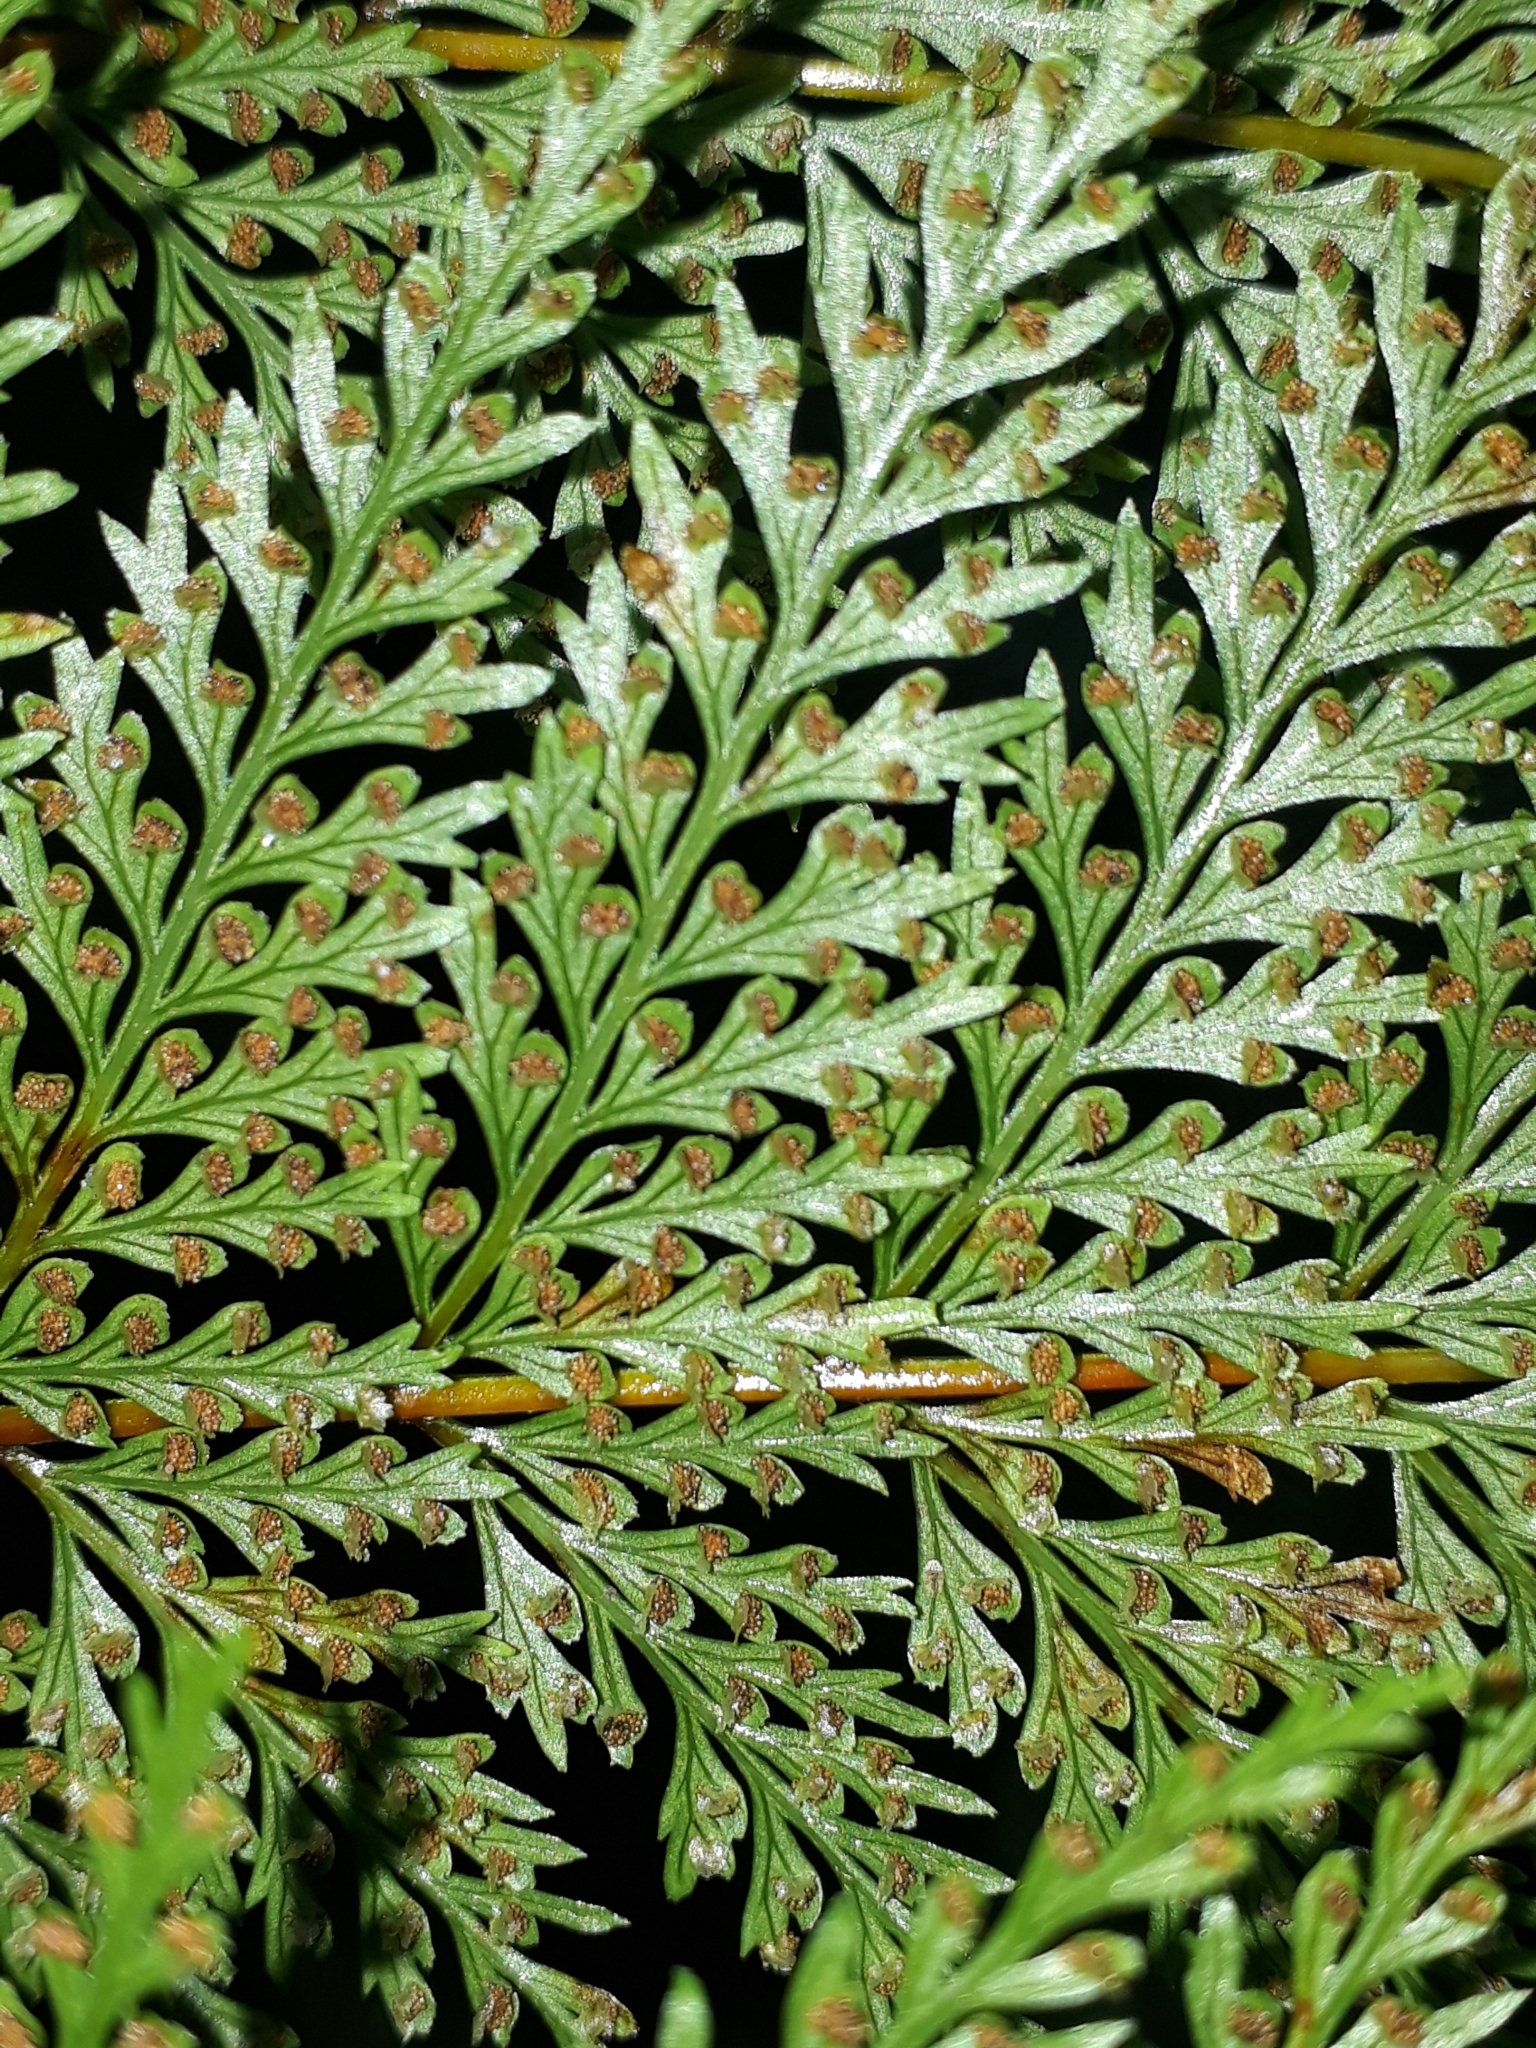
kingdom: Plantae
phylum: Tracheophyta
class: Polypodiopsida
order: Polypodiales
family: Dennstaedtiaceae
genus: Dennstaedtia
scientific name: Dennstaedtia novae-zelandiae
